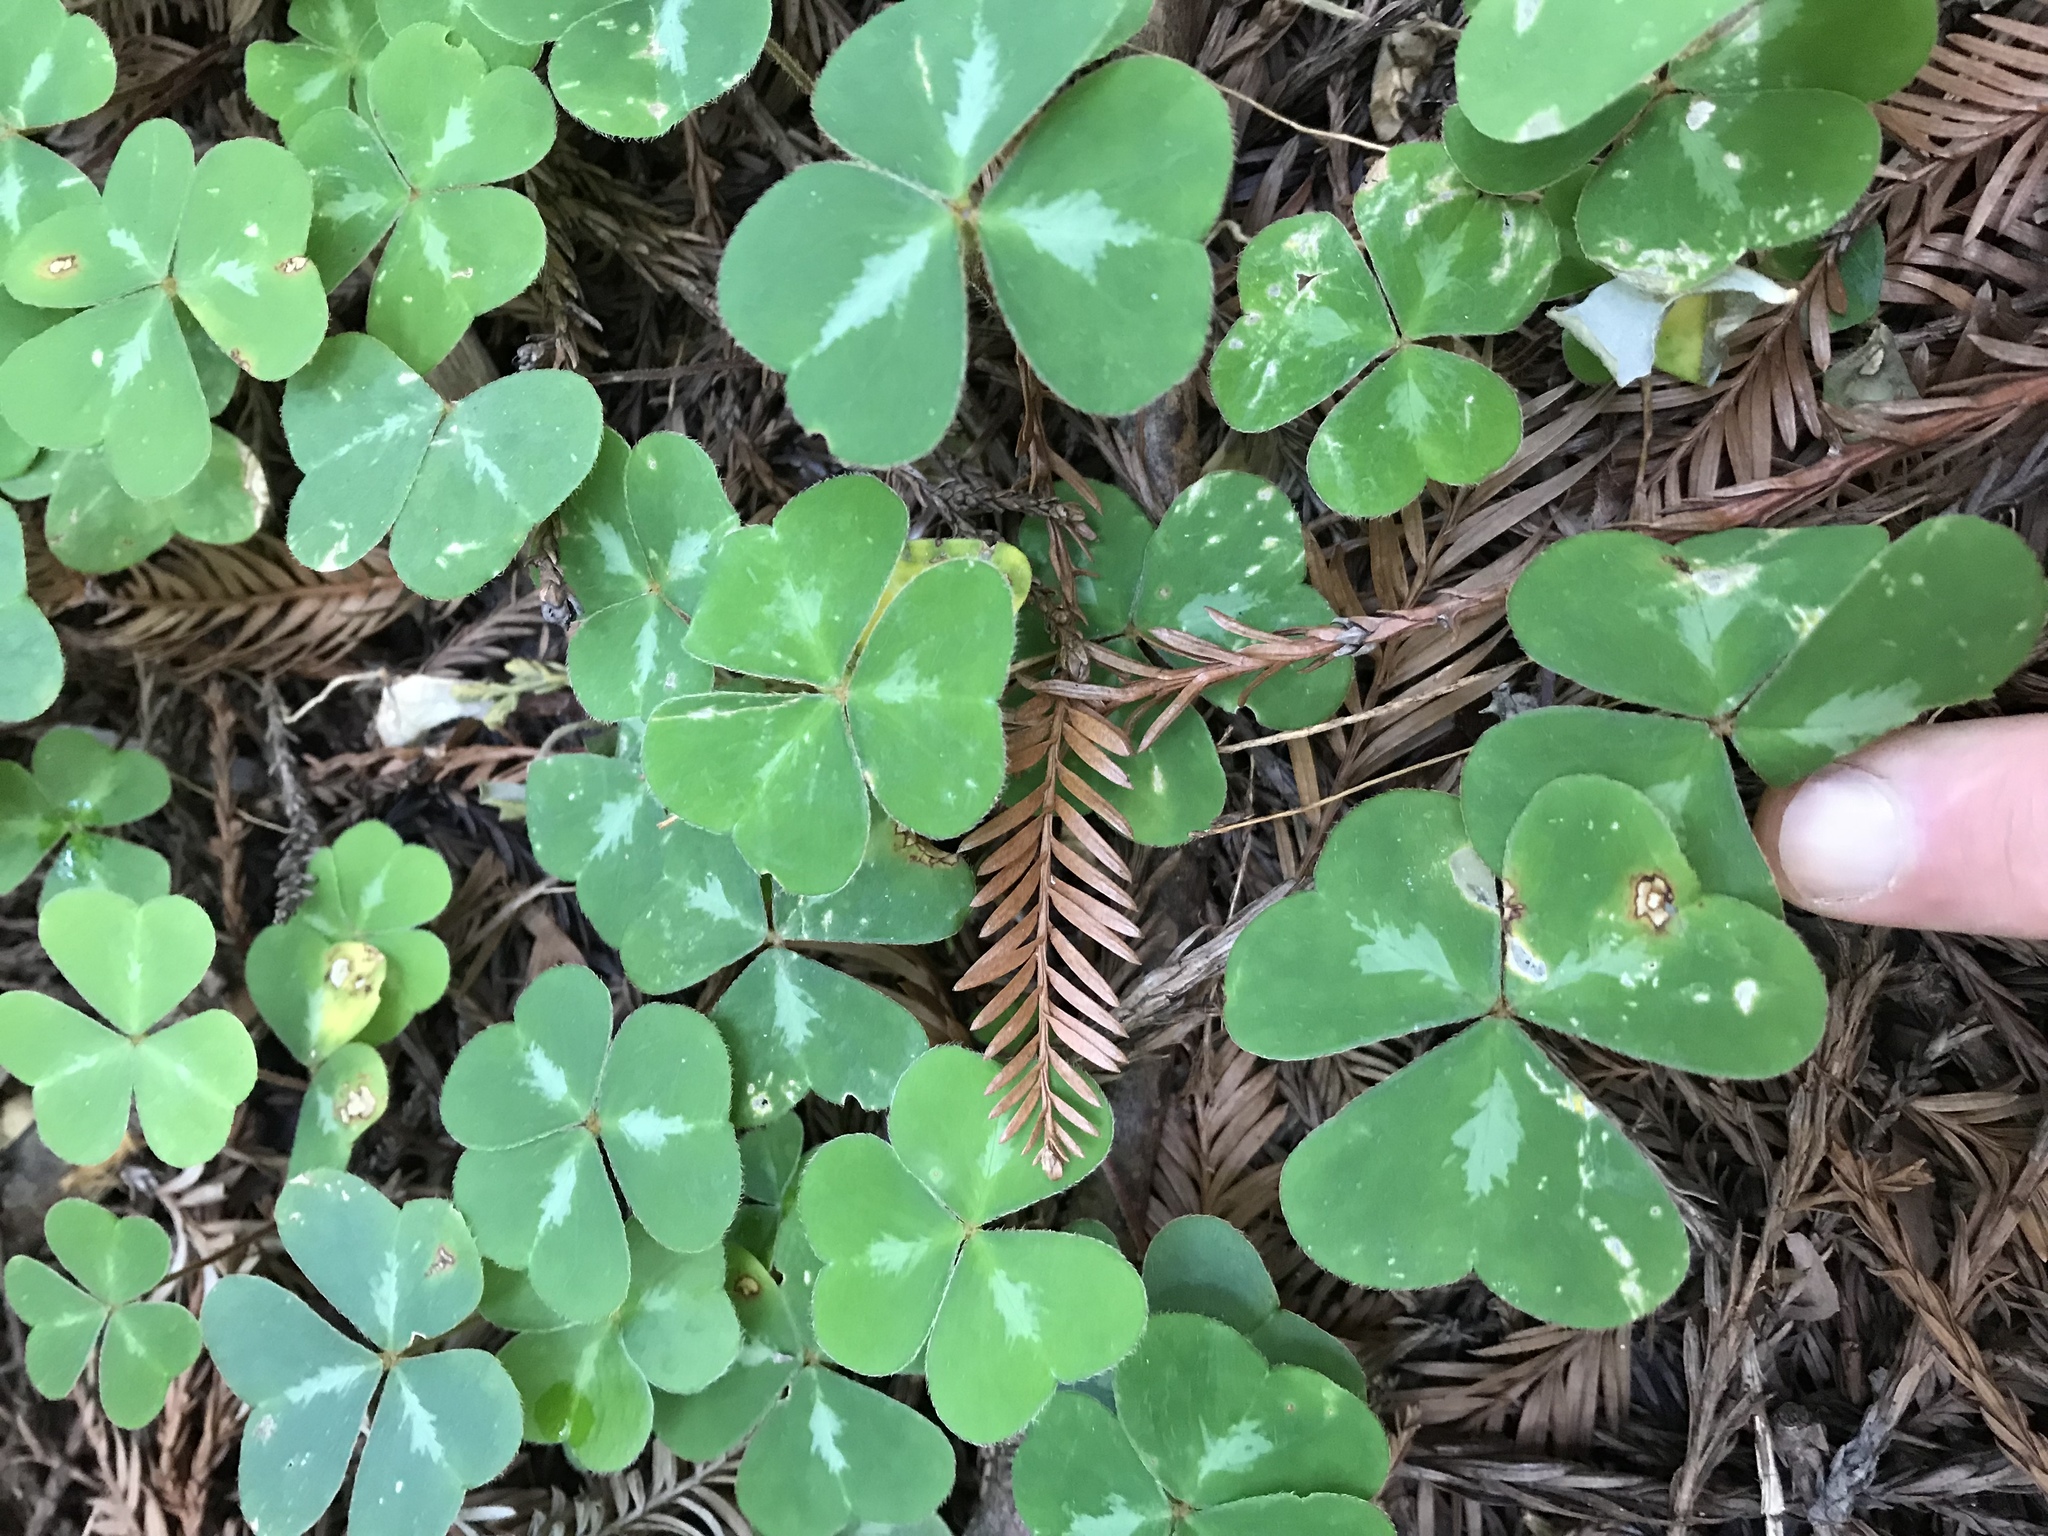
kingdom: Plantae
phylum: Tracheophyta
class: Magnoliopsida
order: Oxalidales
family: Oxalidaceae
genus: Oxalis
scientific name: Oxalis oregana
